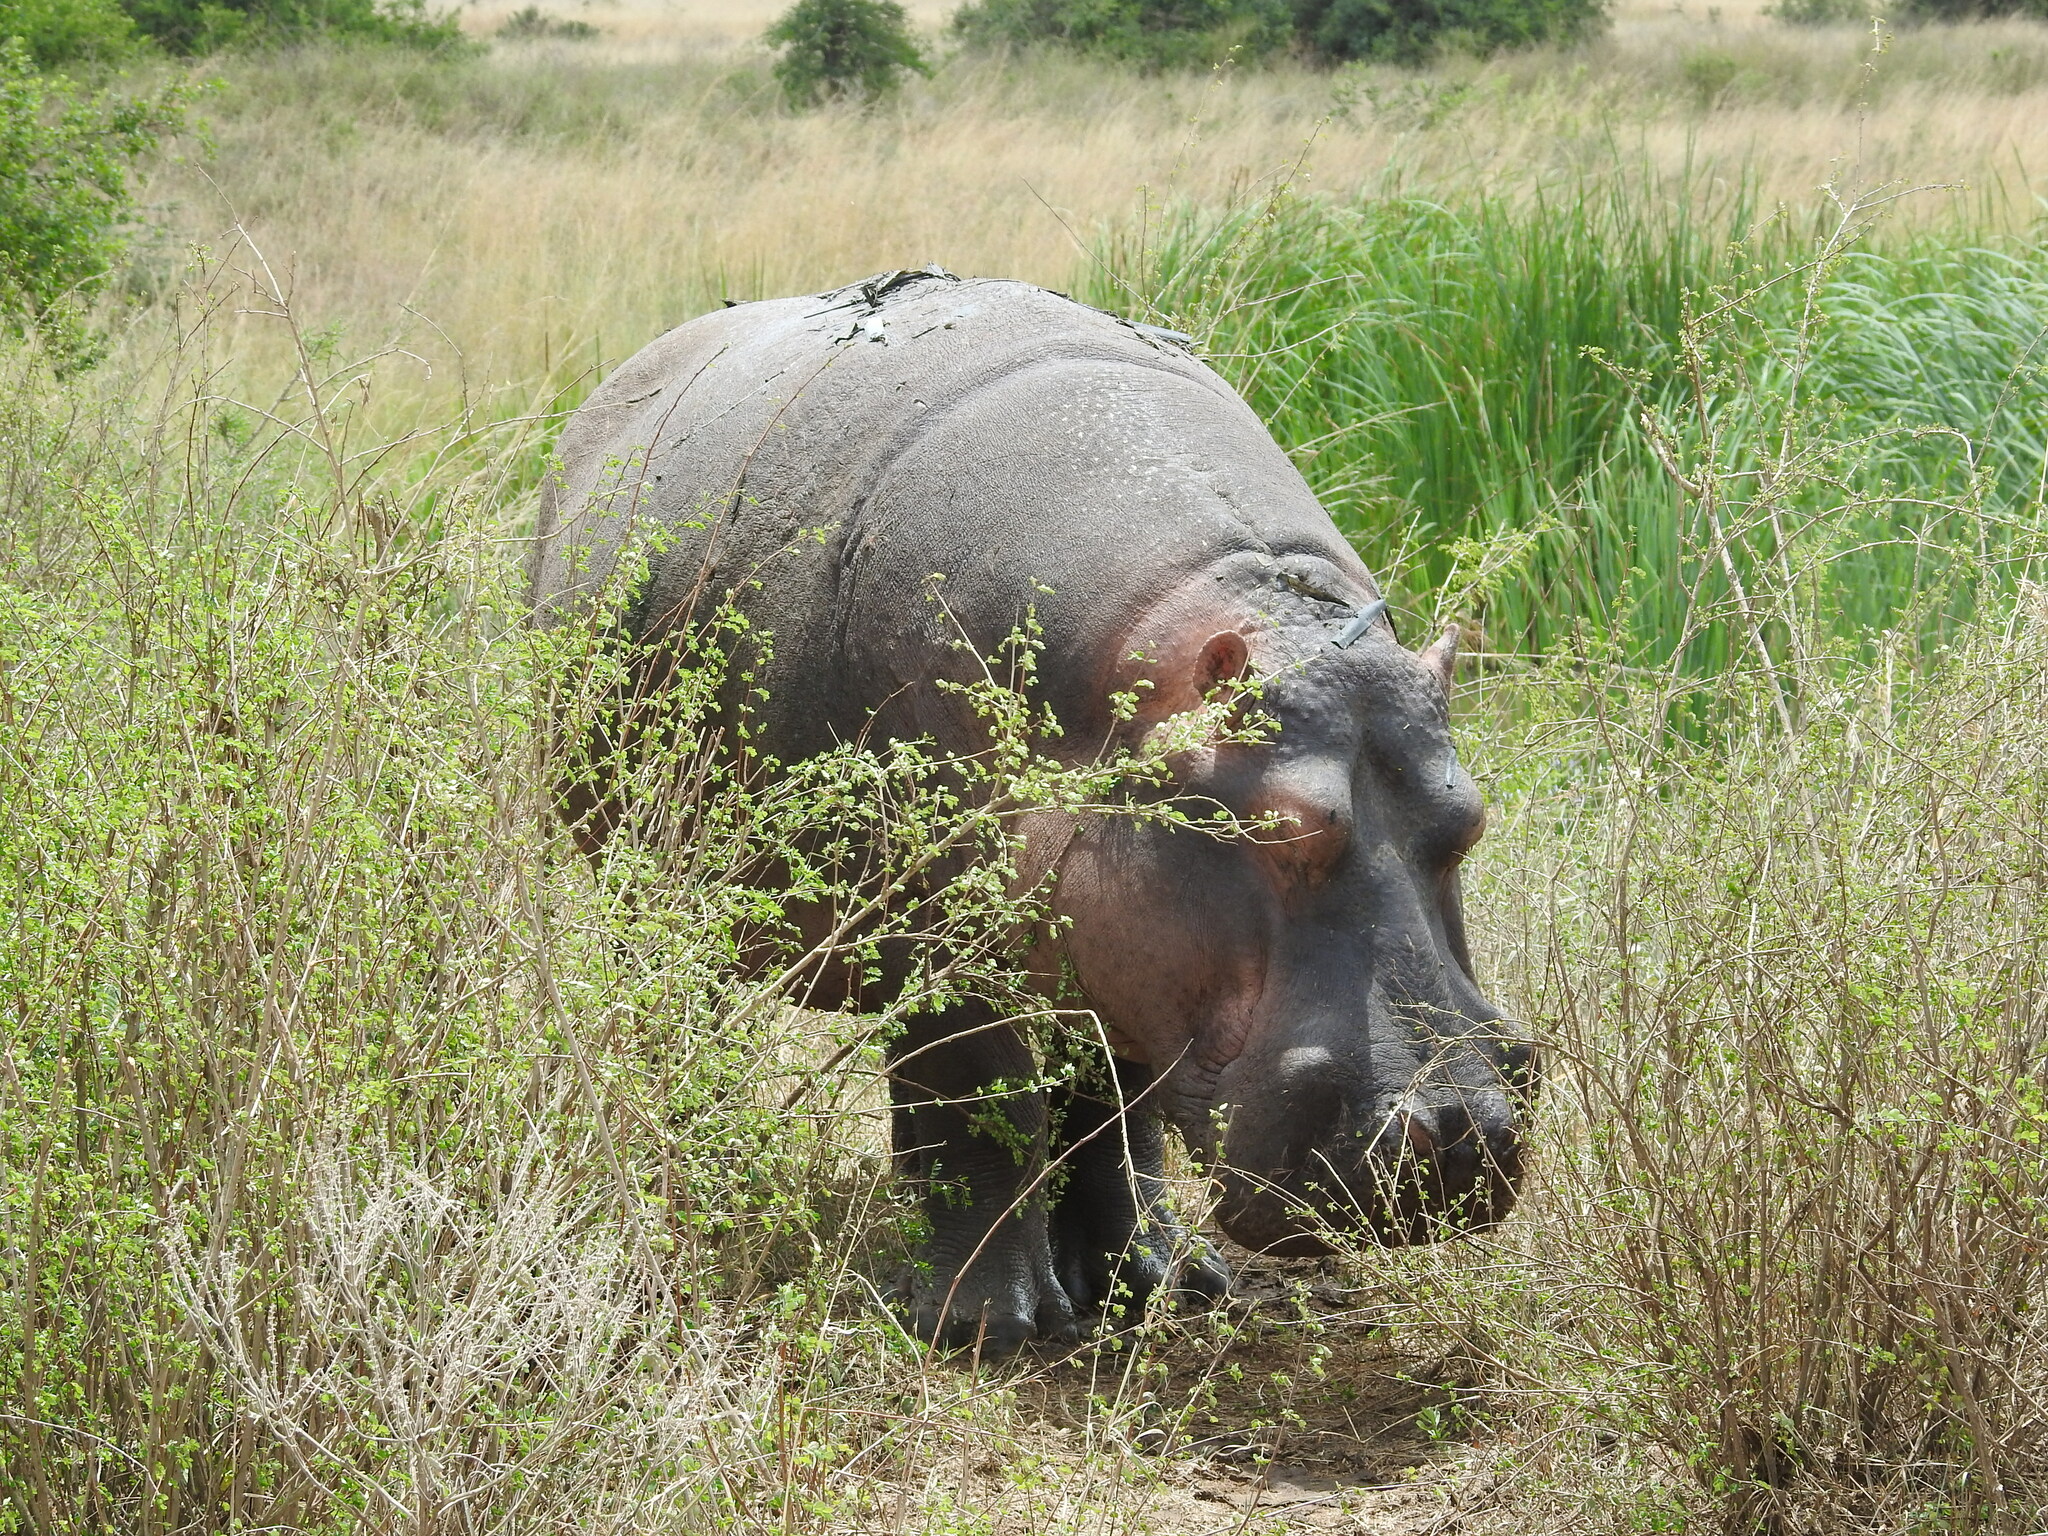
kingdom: Animalia
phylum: Chordata
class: Mammalia
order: Artiodactyla
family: Hippopotamidae
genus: Hippopotamus
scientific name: Hippopotamus amphibius
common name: Common hippopotamus
